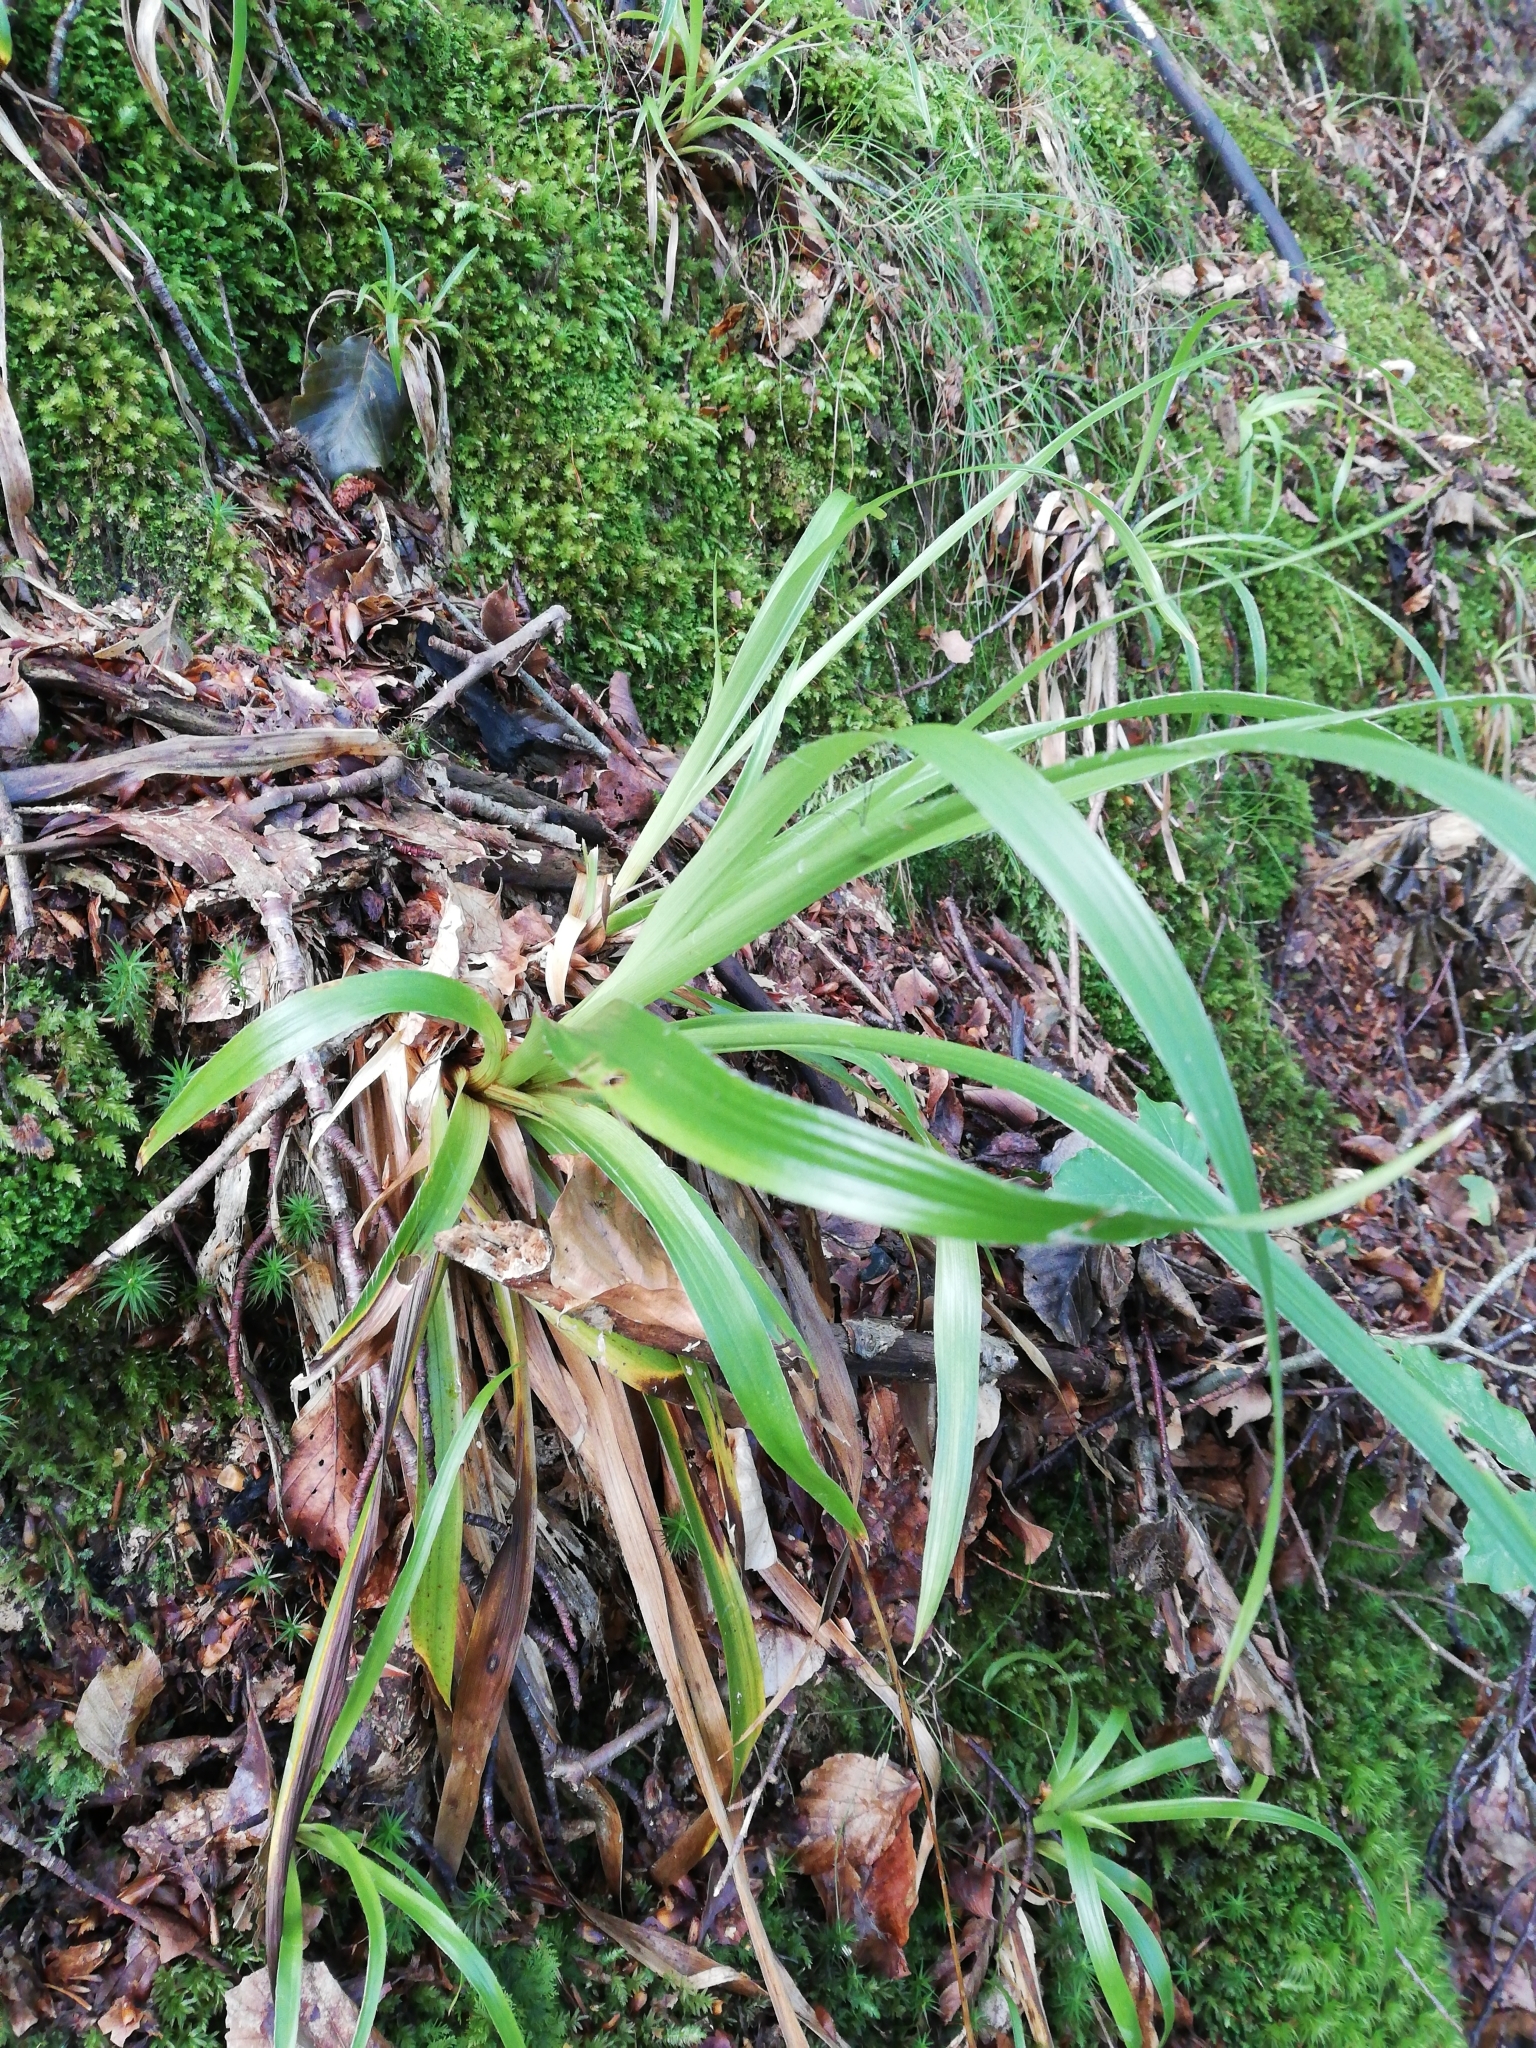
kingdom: Plantae
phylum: Tracheophyta
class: Liliopsida
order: Poales
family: Juncaceae
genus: Luzula
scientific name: Luzula sylvatica
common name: Great wood-rush
